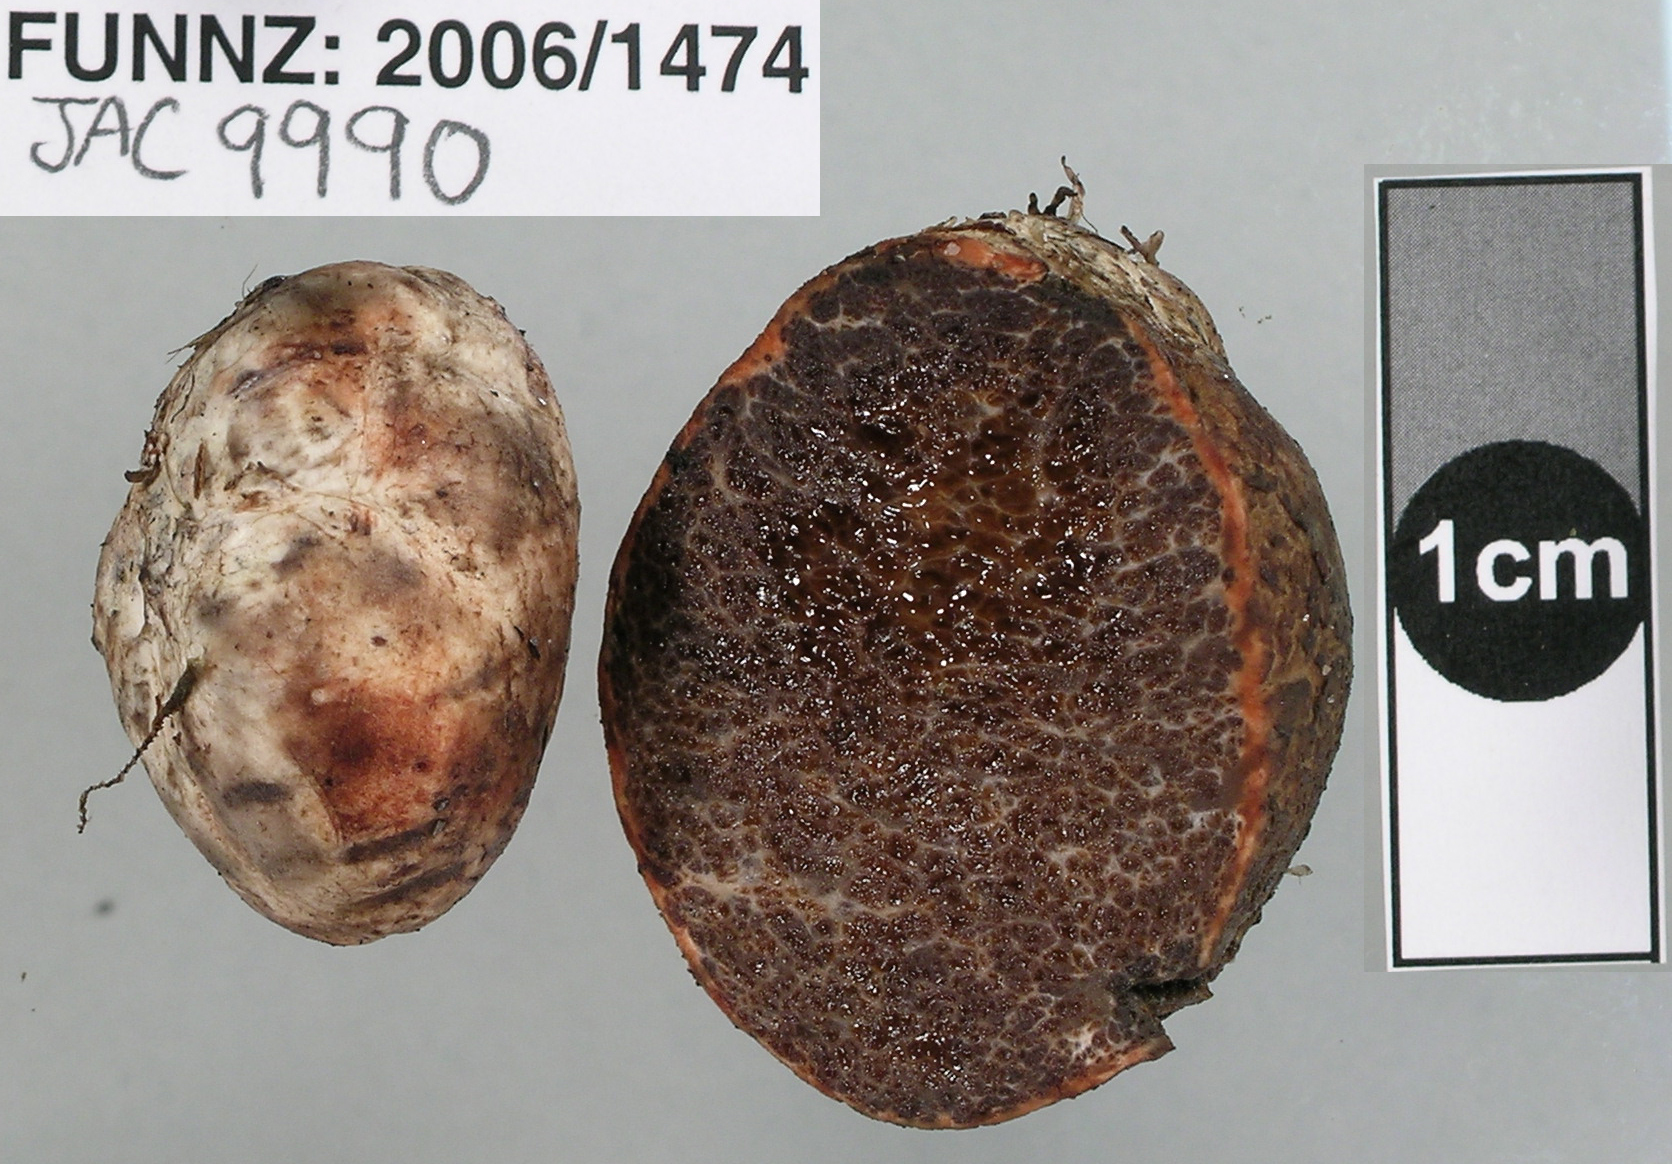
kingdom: Fungi
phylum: Basidiomycota
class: Agaricomycetes
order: Boletales
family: Boletaceae
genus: Octaviania
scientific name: Octaviania tasmanica
